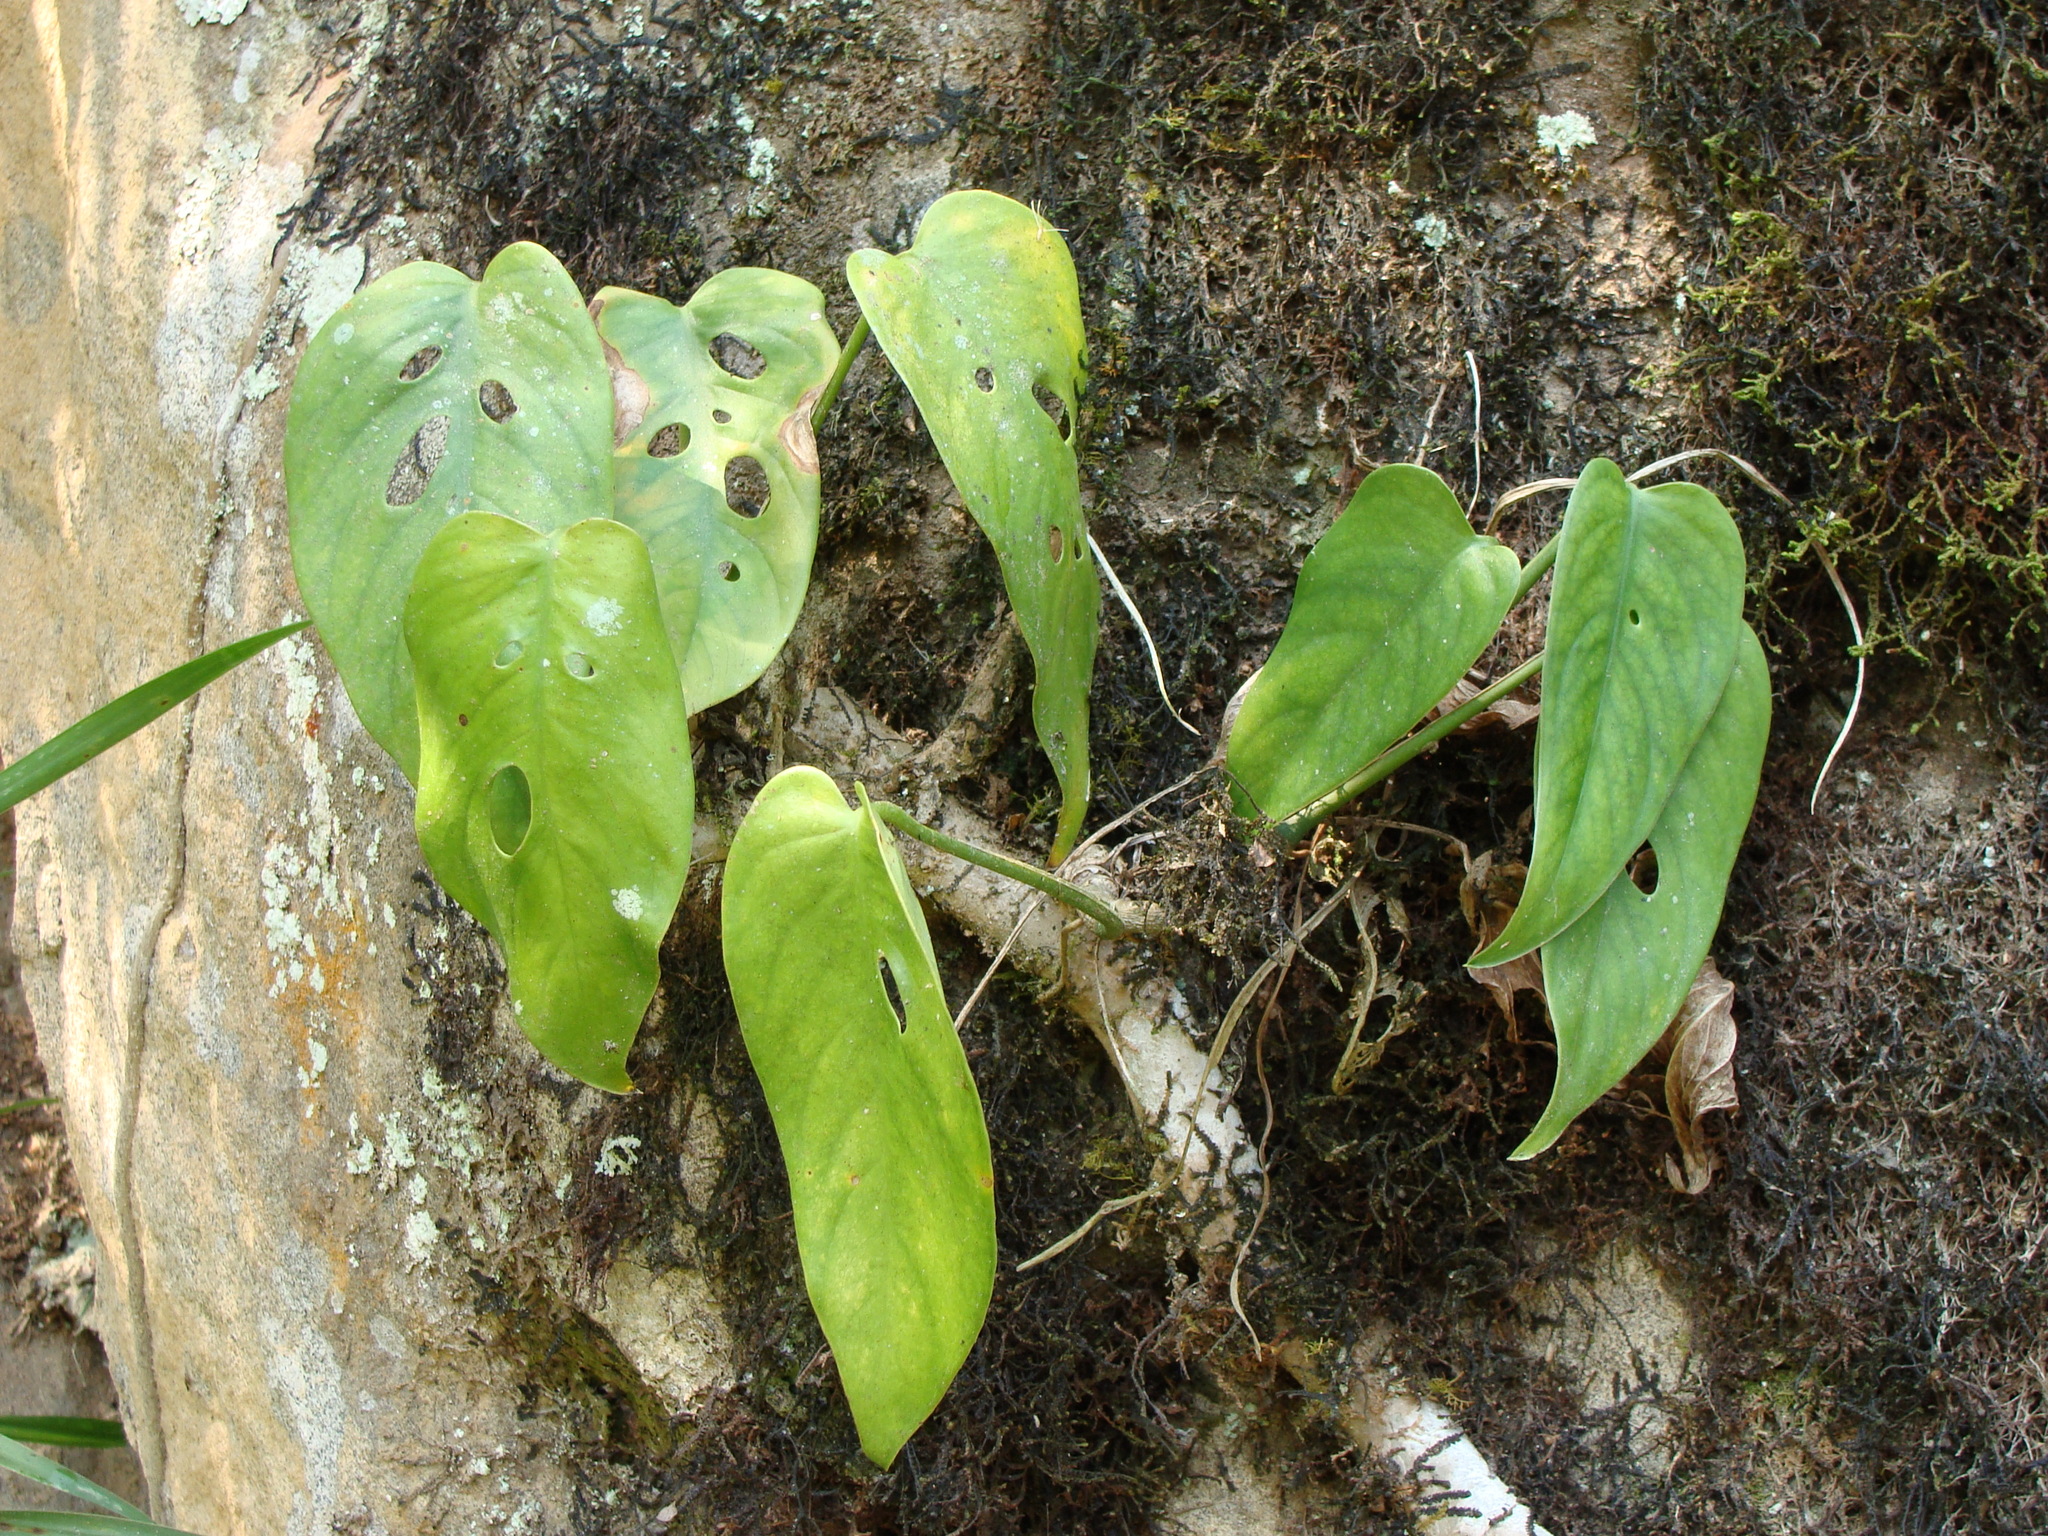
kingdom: Plantae
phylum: Tracheophyta
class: Liliopsida
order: Alismatales
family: Araceae
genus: Monstera
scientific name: Monstera siltepecana
